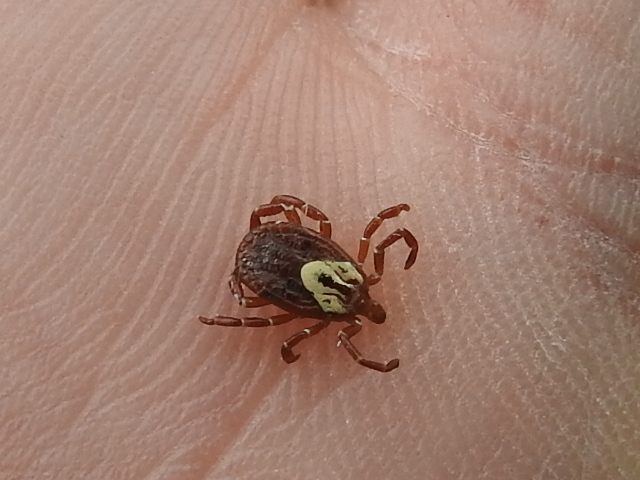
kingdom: Animalia
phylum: Arthropoda
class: Arachnida
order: Ixodida
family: Ixodidae
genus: Amblyomma
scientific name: Amblyomma maculatum
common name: Gulf coast tick
